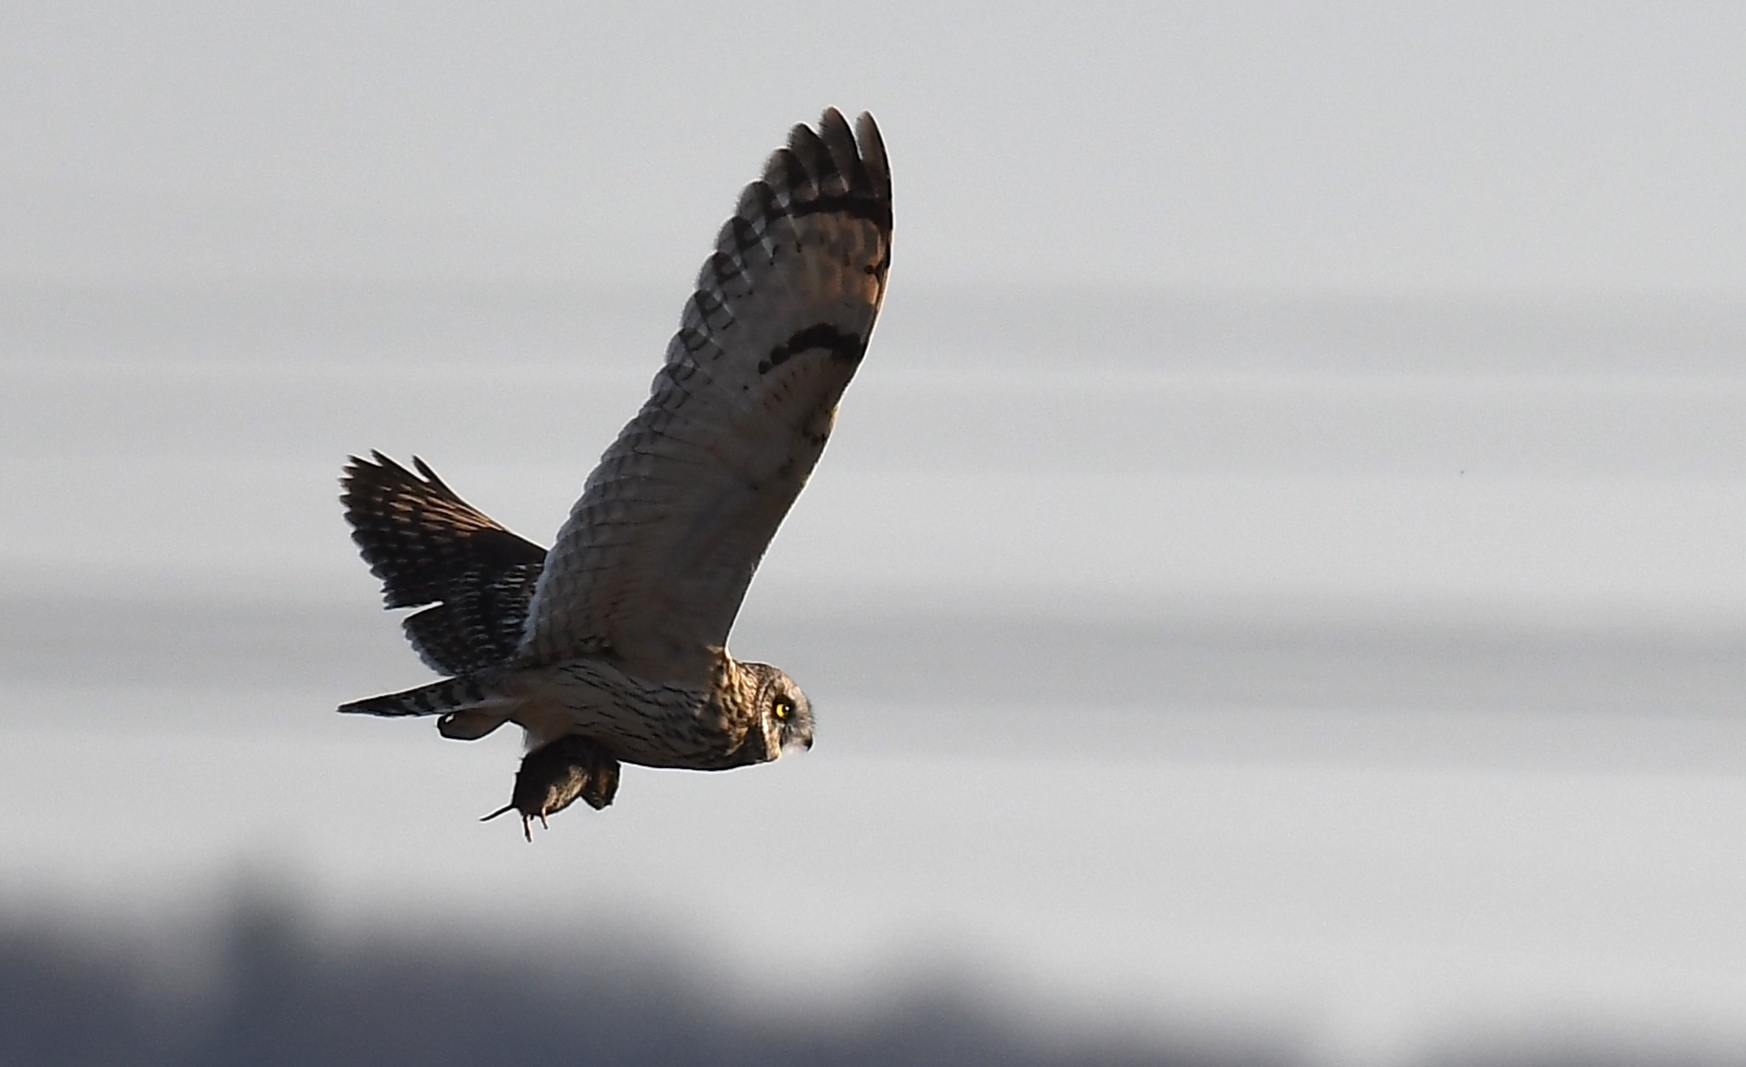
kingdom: Animalia
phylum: Chordata
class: Aves
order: Strigiformes
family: Strigidae
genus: Asio
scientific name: Asio flammeus
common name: Short-eared owl
